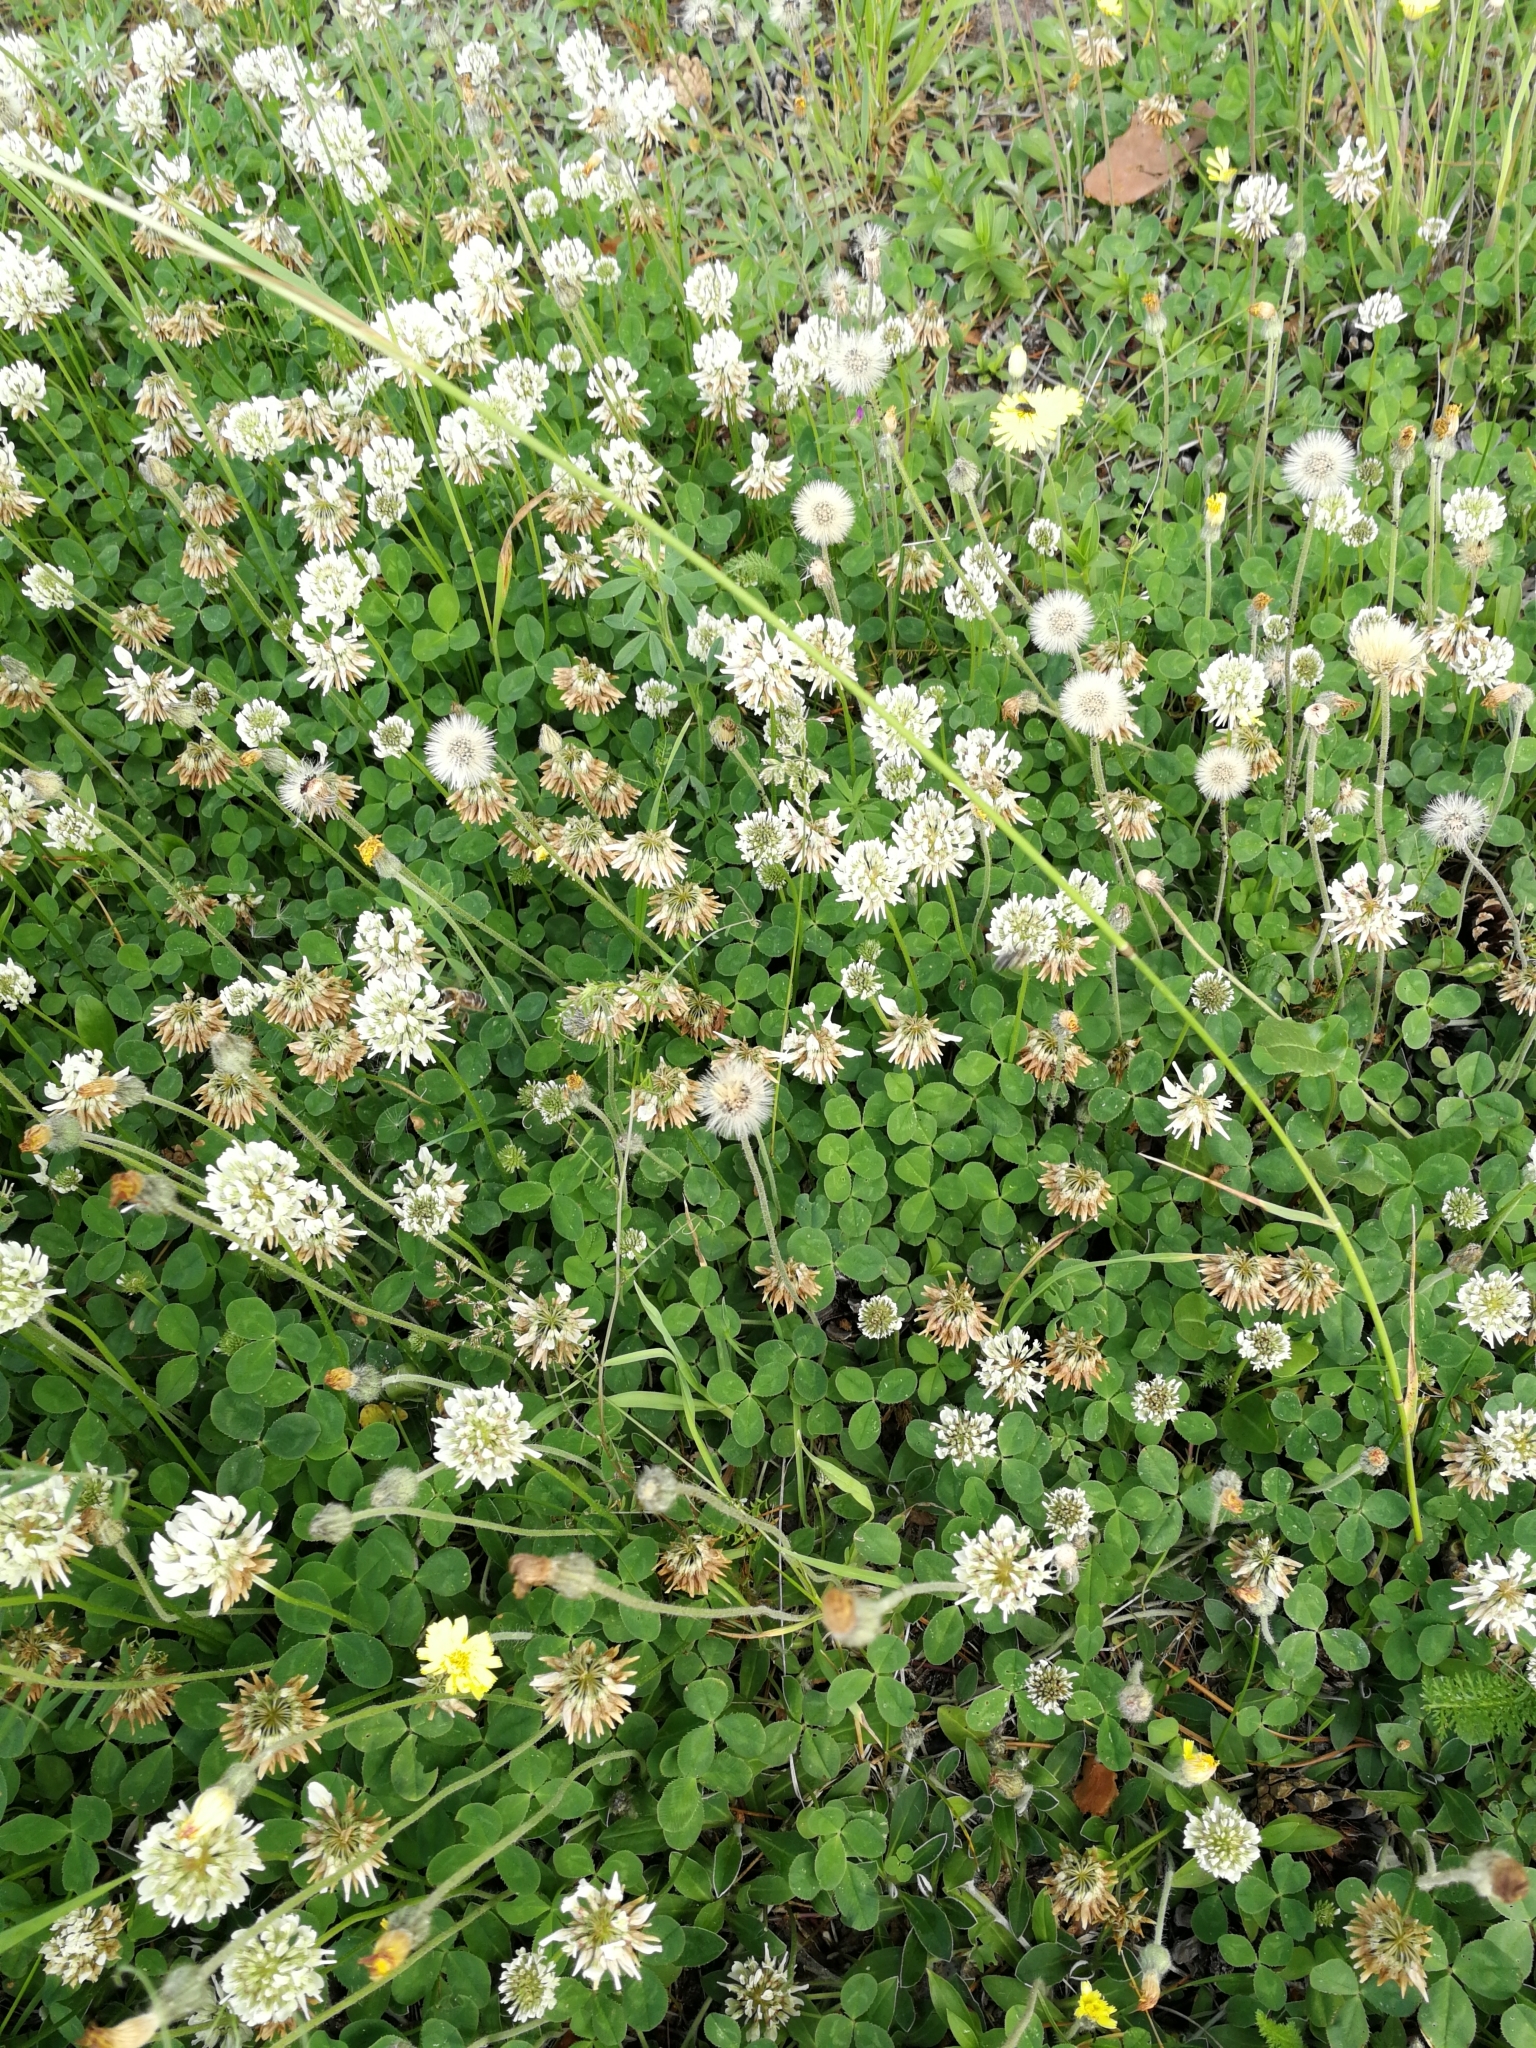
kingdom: Plantae
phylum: Tracheophyta
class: Magnoliopsida
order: Fabales
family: Fabaceae
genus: Trifolium
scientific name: Trifolium repens
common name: White clover
